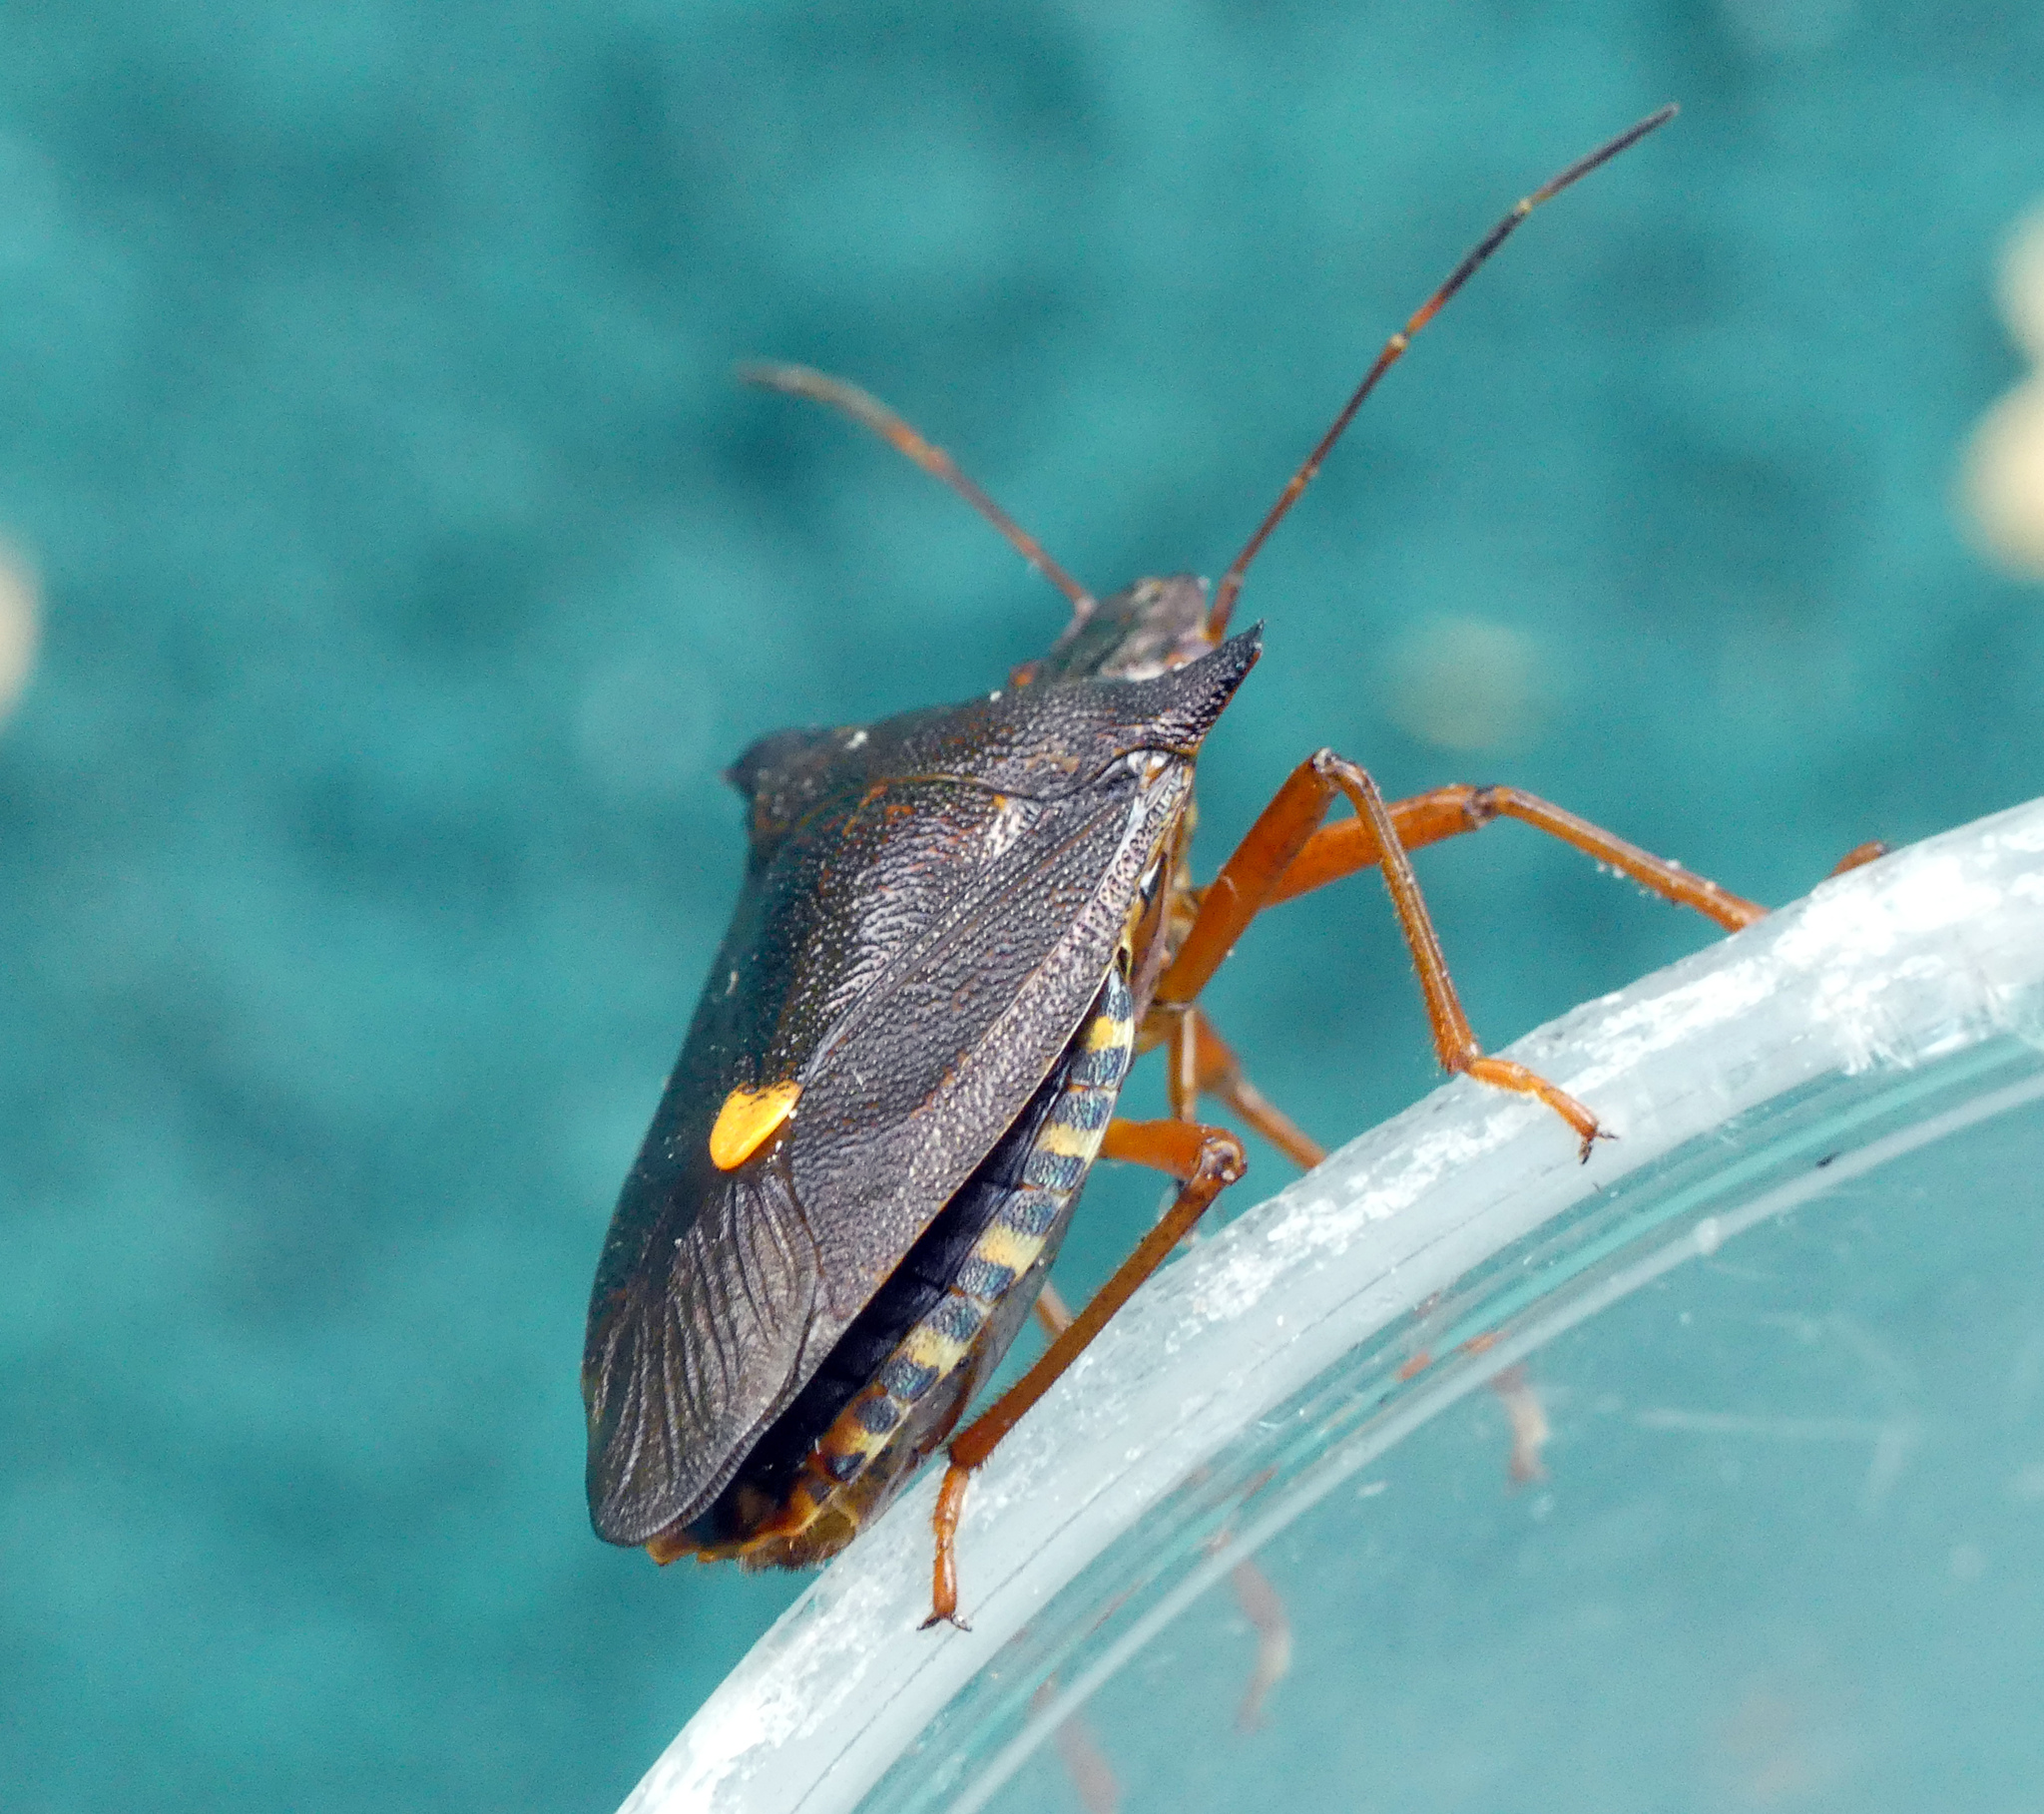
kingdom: Animalia
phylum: Arthropoda
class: Insecta
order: Hemiptera
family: Pentatomidae
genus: Pentatoma
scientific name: Pentatoma rufipes
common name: Forest bug
